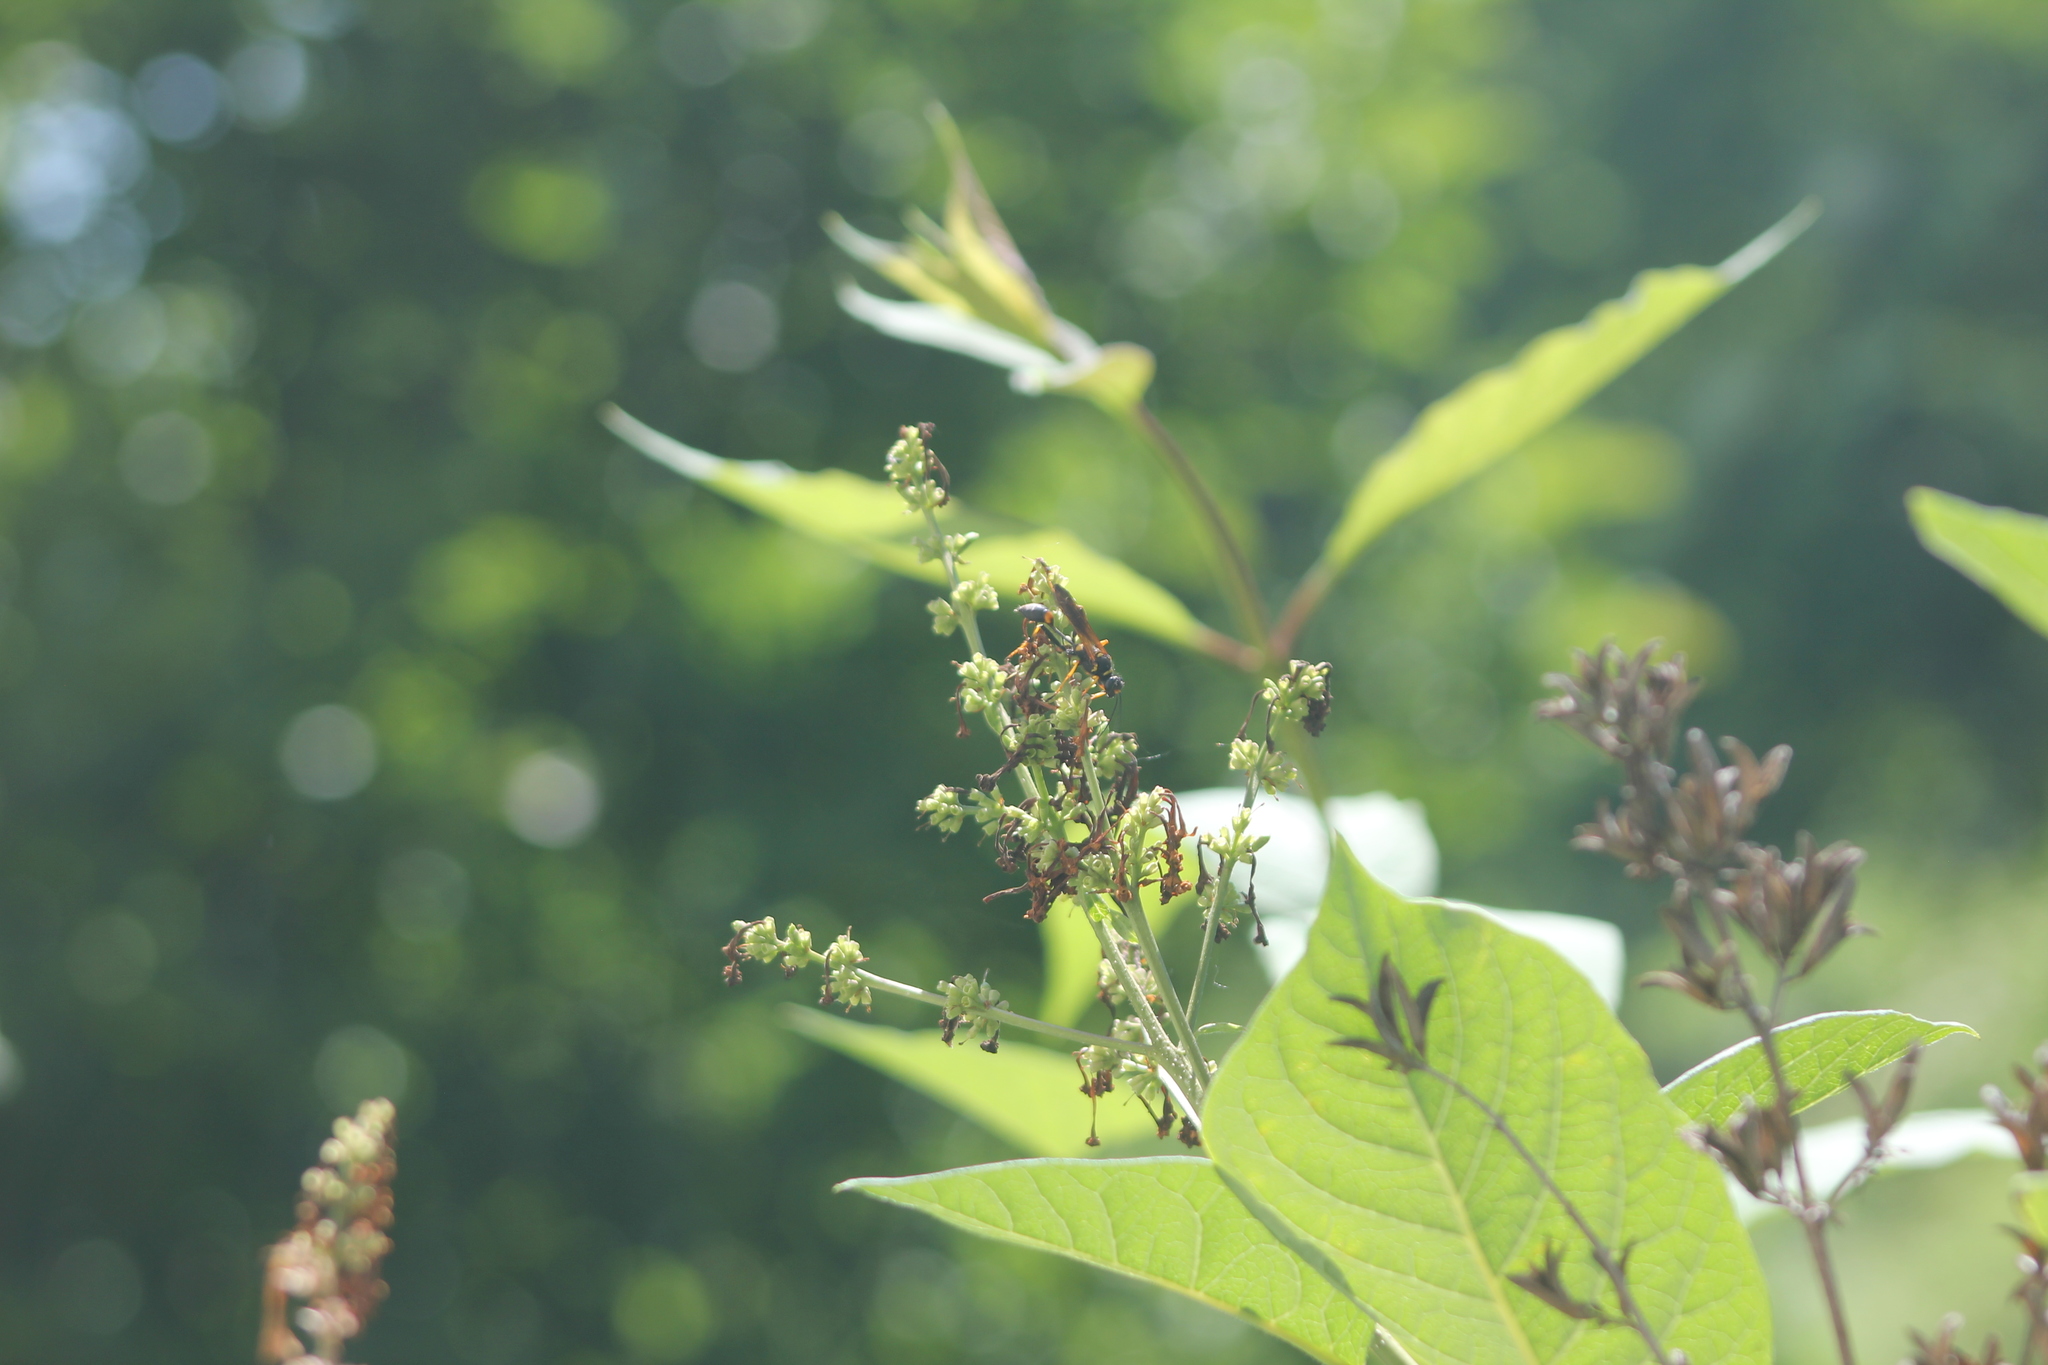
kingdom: Animalia
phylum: Arthropoda
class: Insecta
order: Hymenoptera
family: Sphecidae
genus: Sceliphron
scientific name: Sceliphron caementarium
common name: Mud dauber
